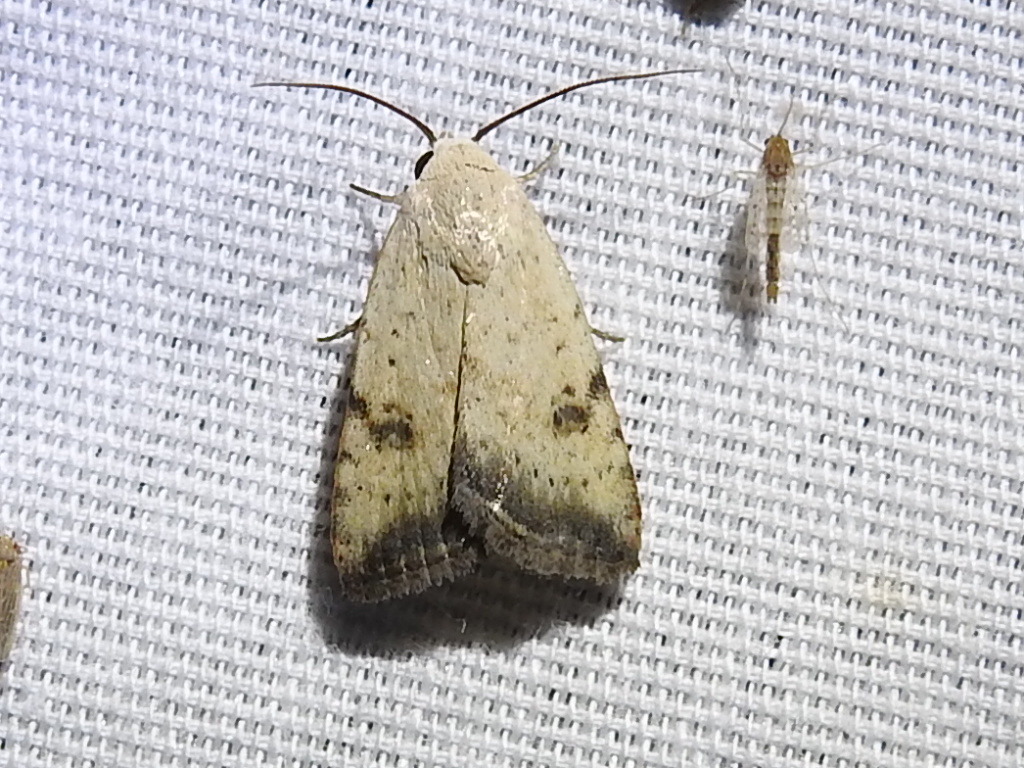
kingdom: Animalia
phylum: Arthropoda
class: Insecta
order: Lepidoptera
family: Noctuidae
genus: Micrathetis
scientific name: Micrathetis triplex
